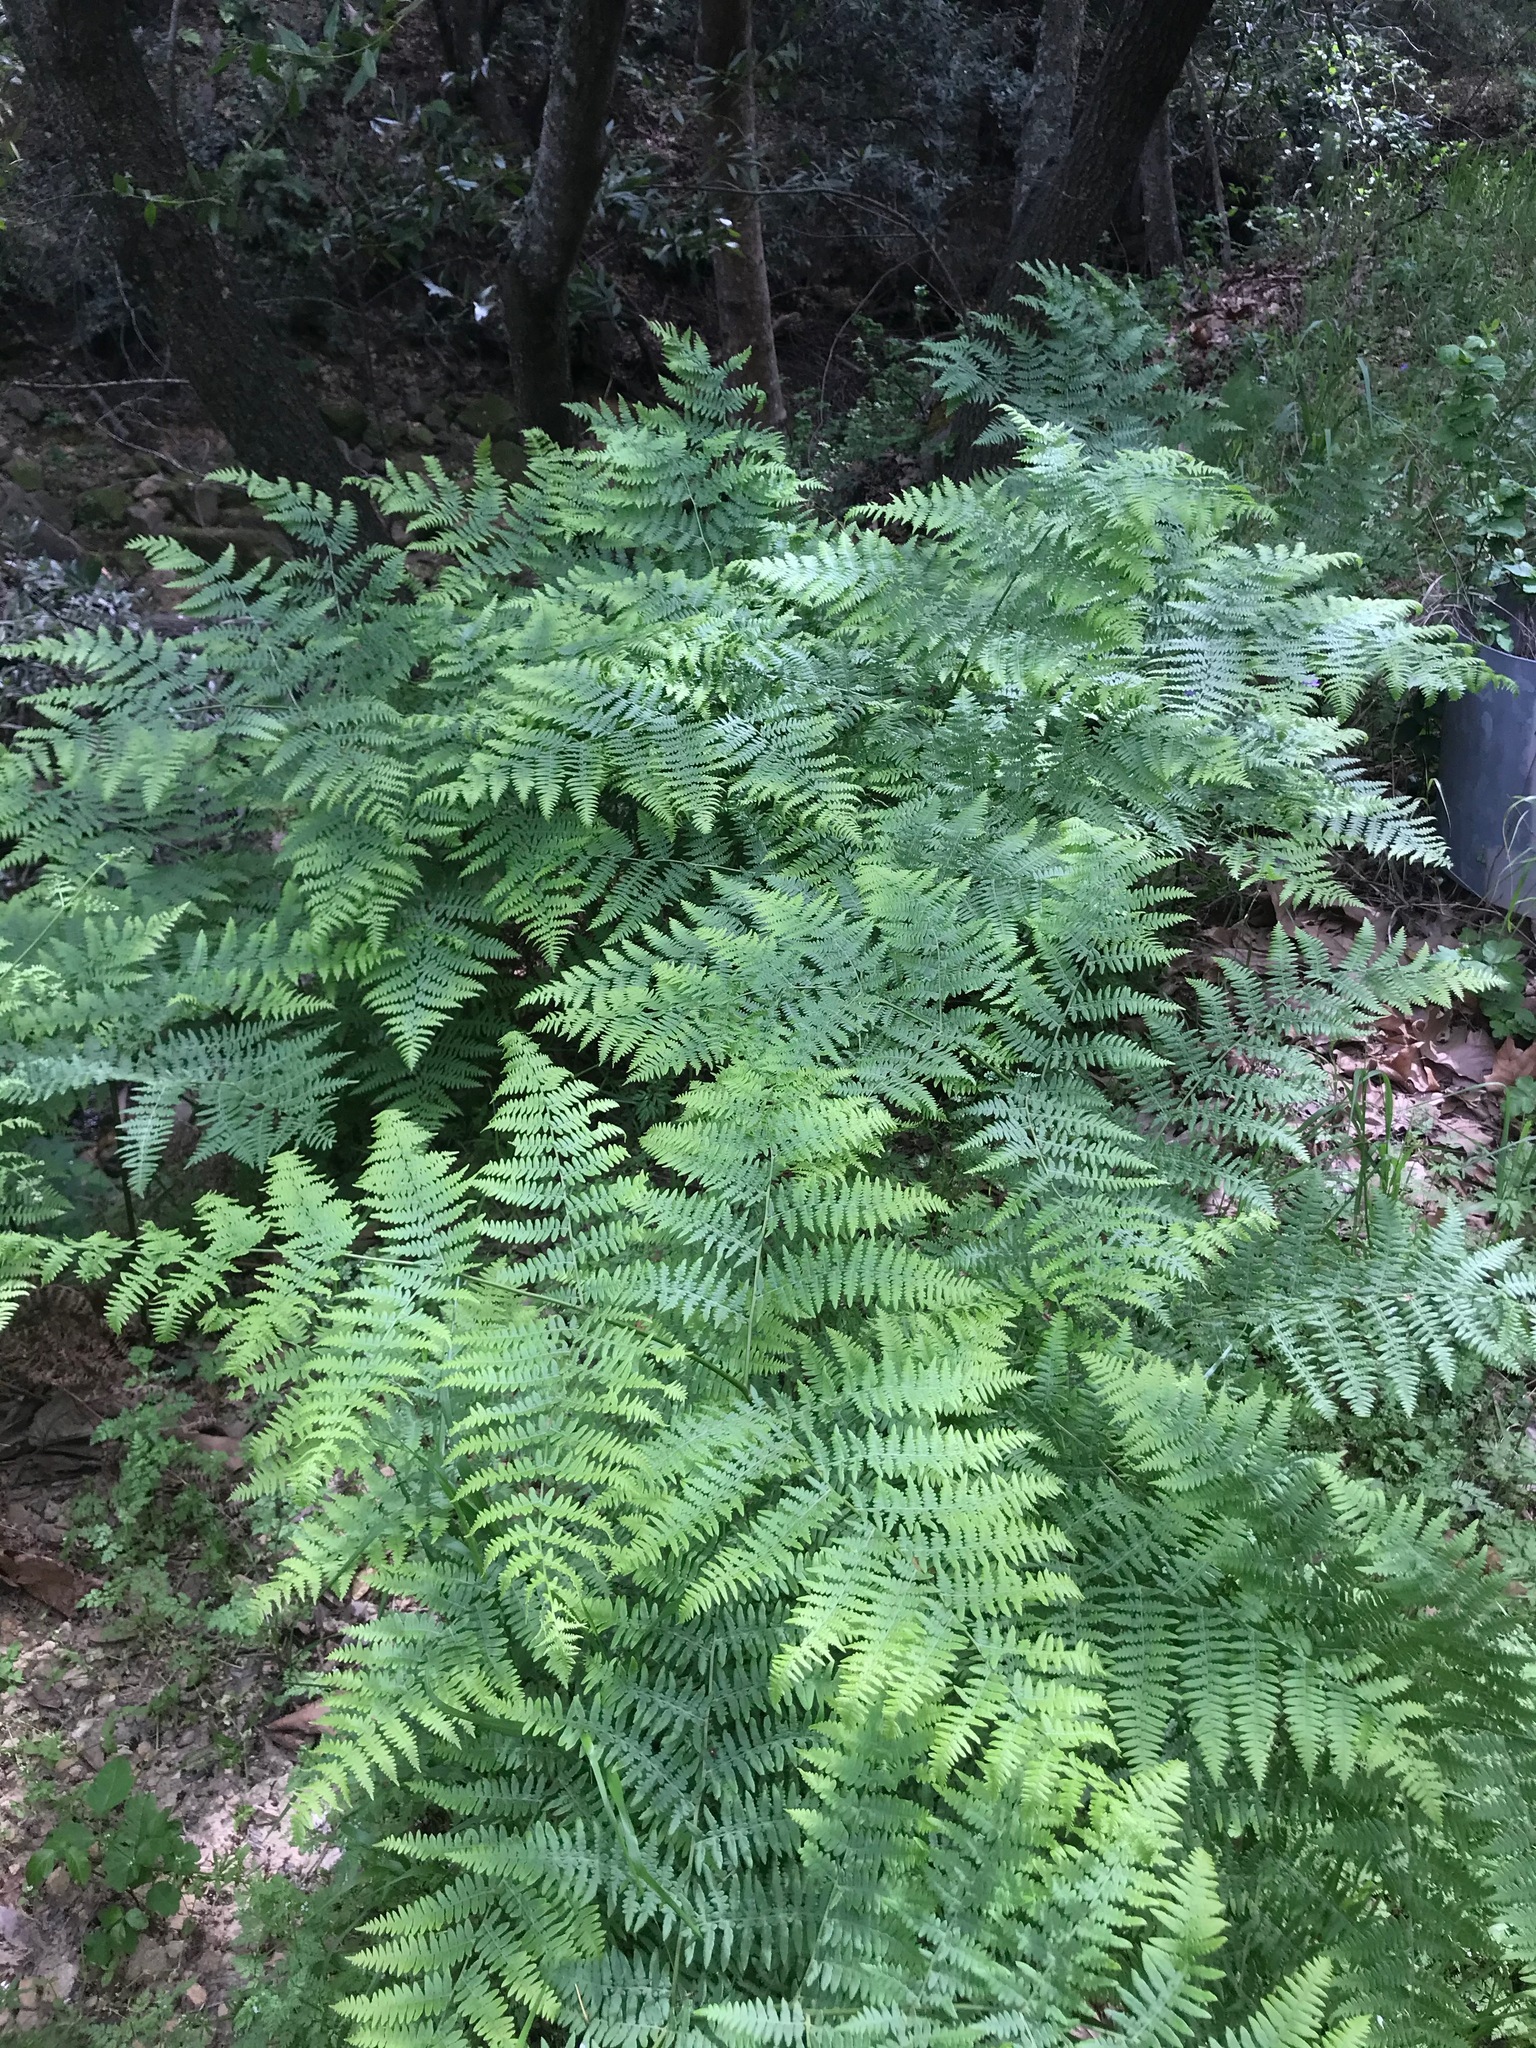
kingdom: Plantae
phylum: Tracheophyta
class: Polypodiopsida
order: Polypodiales
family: Dennstaedtiaceae
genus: Pteridium
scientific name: Pteridium aquilinum
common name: Bracken
